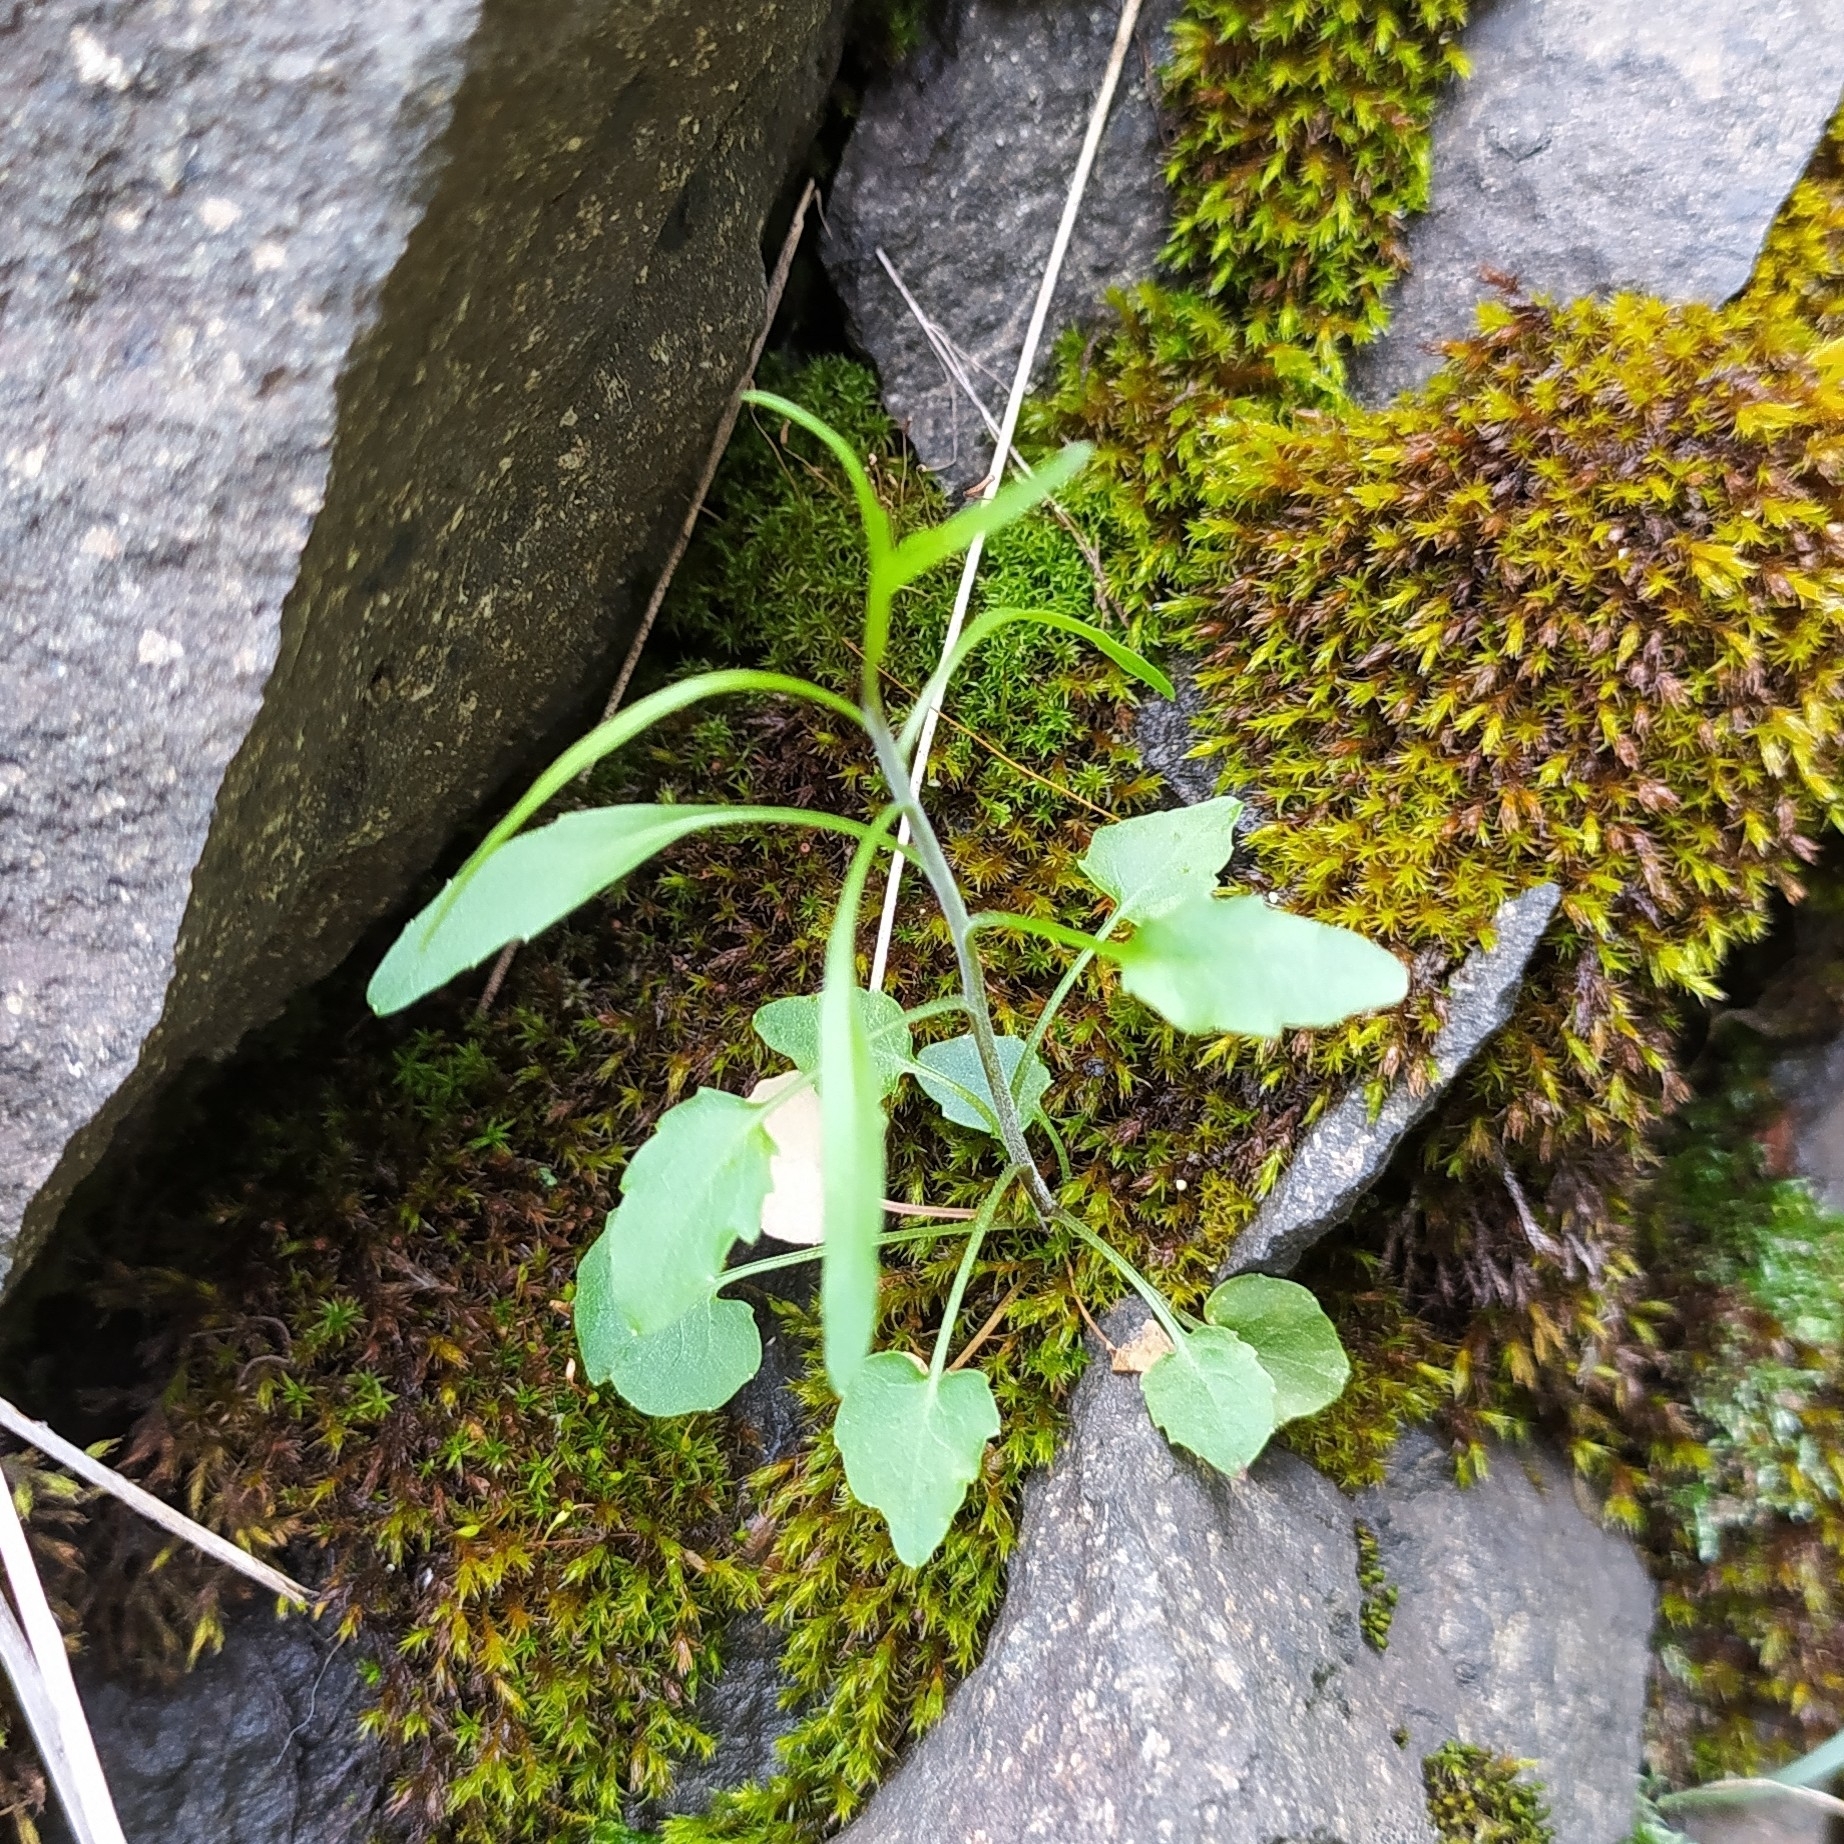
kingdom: Plantae
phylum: Tracheophyta
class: Magnoliopsida
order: Asterales
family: Campanulaceae
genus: Campanula
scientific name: Campanula rotundifolia
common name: Harebell
